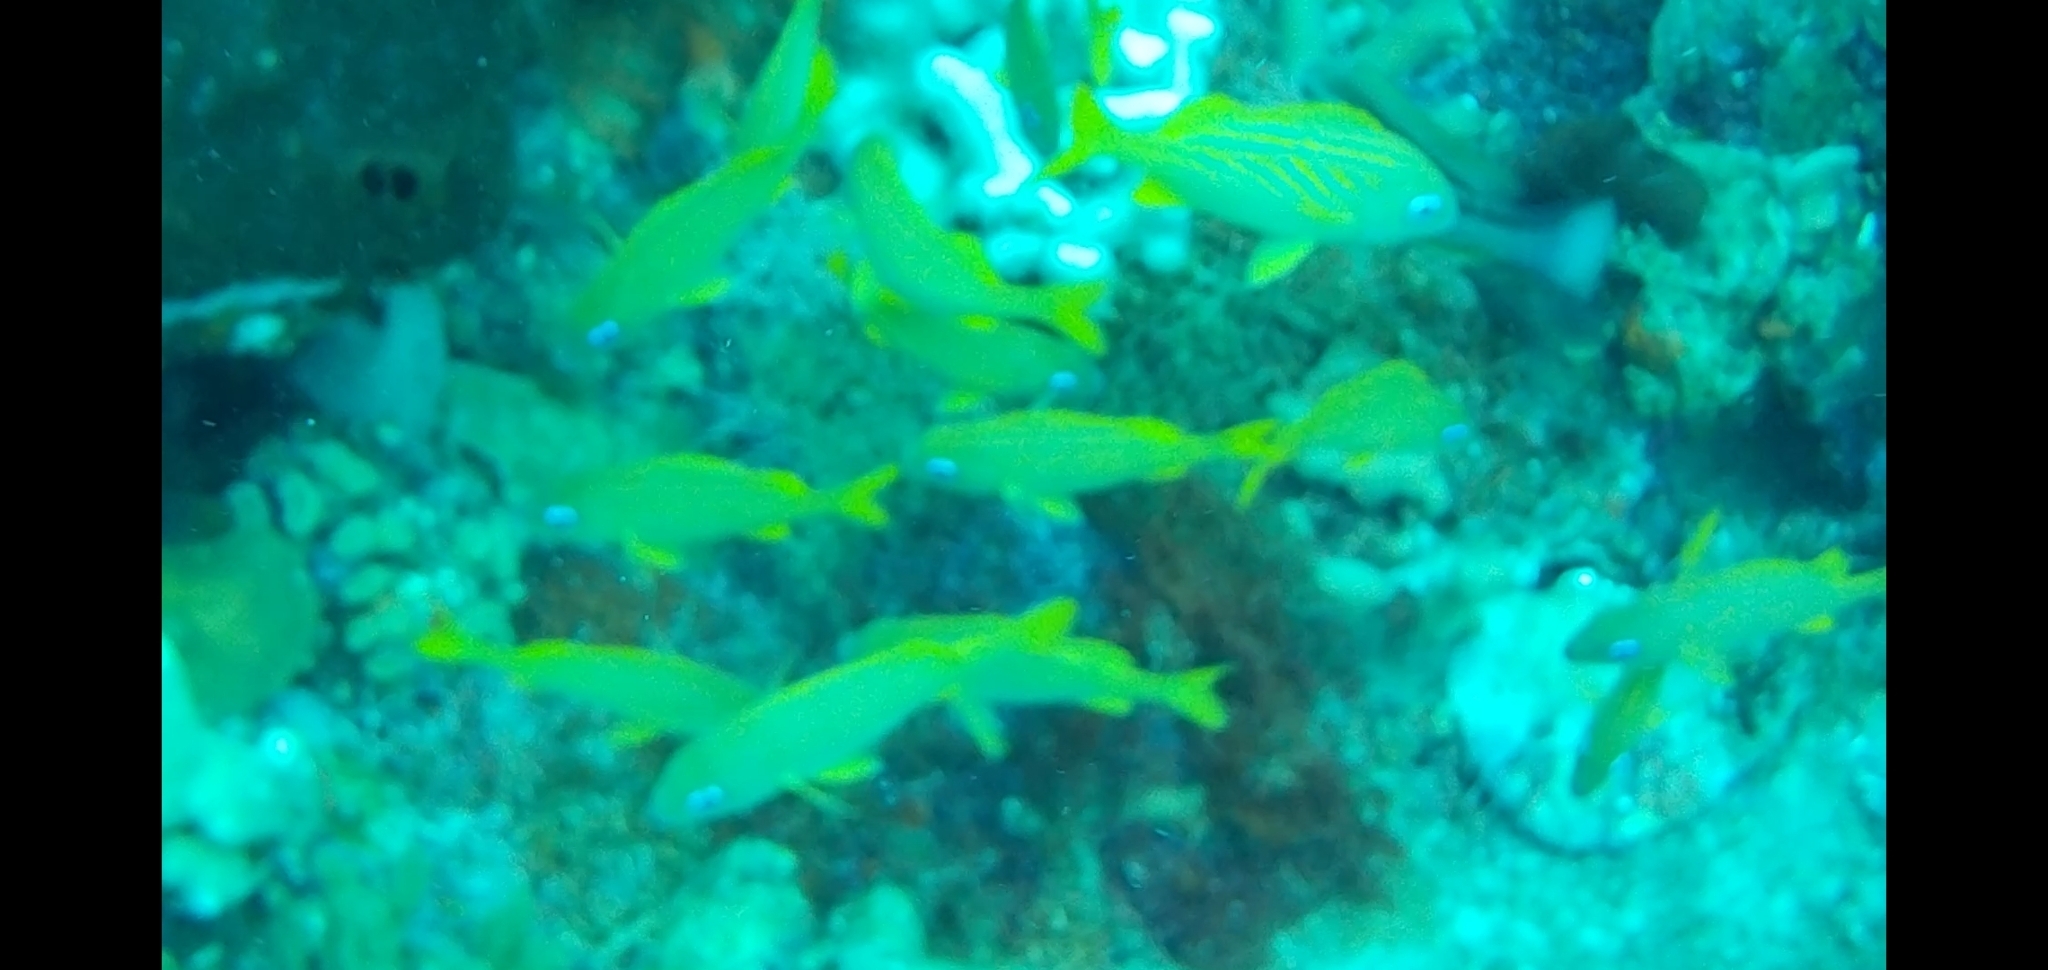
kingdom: Animalia
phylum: Chordata
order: Perciformes
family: Haemulidae
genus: Haemulon
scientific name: Haemulon flavolineatum
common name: French grunt
